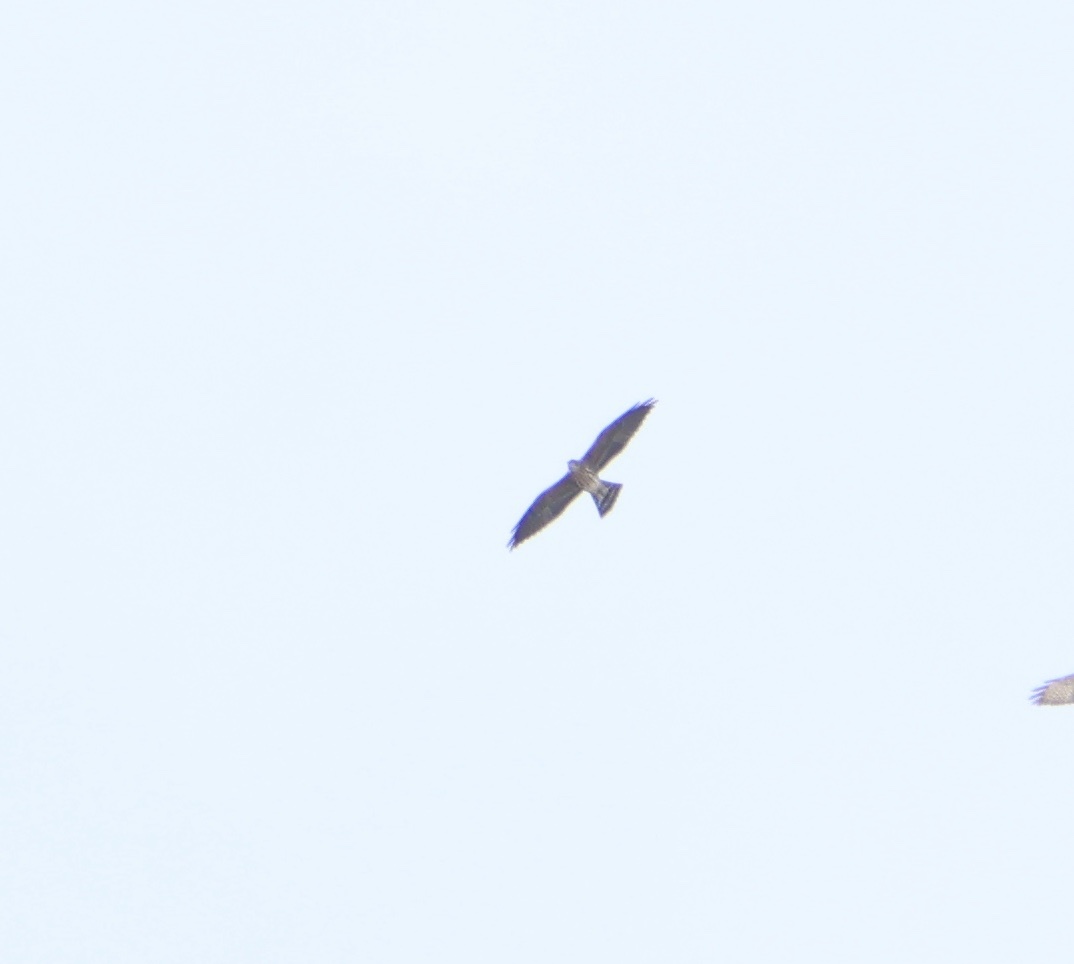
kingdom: Animalia
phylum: Chordata
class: Aves
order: Accipitriformes
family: Accipitridae
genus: Ictinia
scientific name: Ictinia mississippiensis
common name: Mississippi kite
